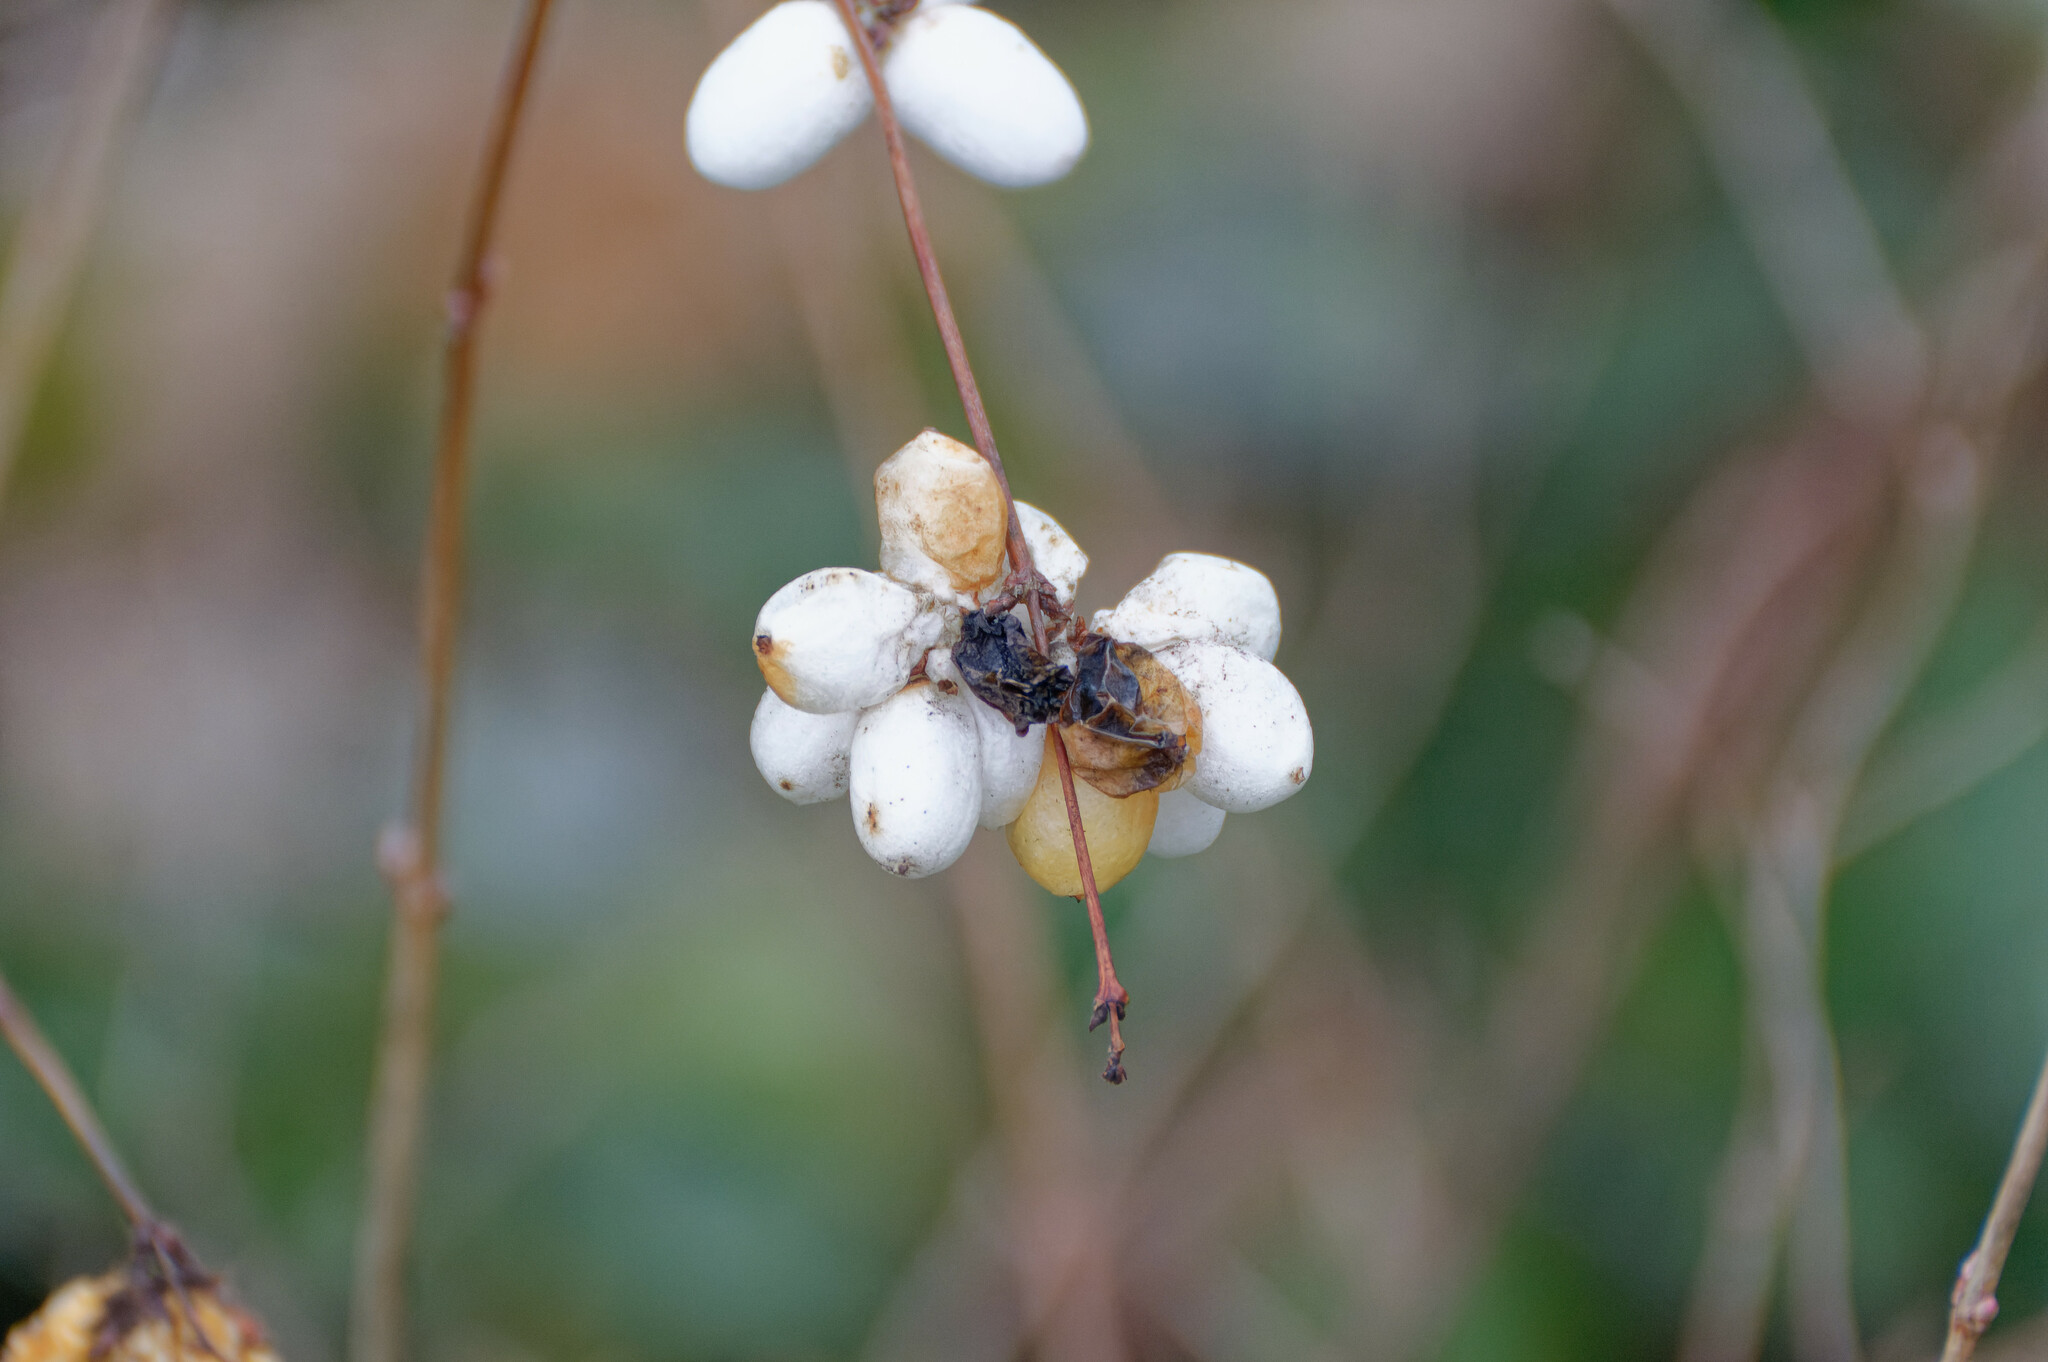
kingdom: Plantae
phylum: Tracheophyta
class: Magnoliopsida
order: Dipsacales
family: Caprifoliaceae
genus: Symphoricarpos
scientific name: Symphoricarpos albus
